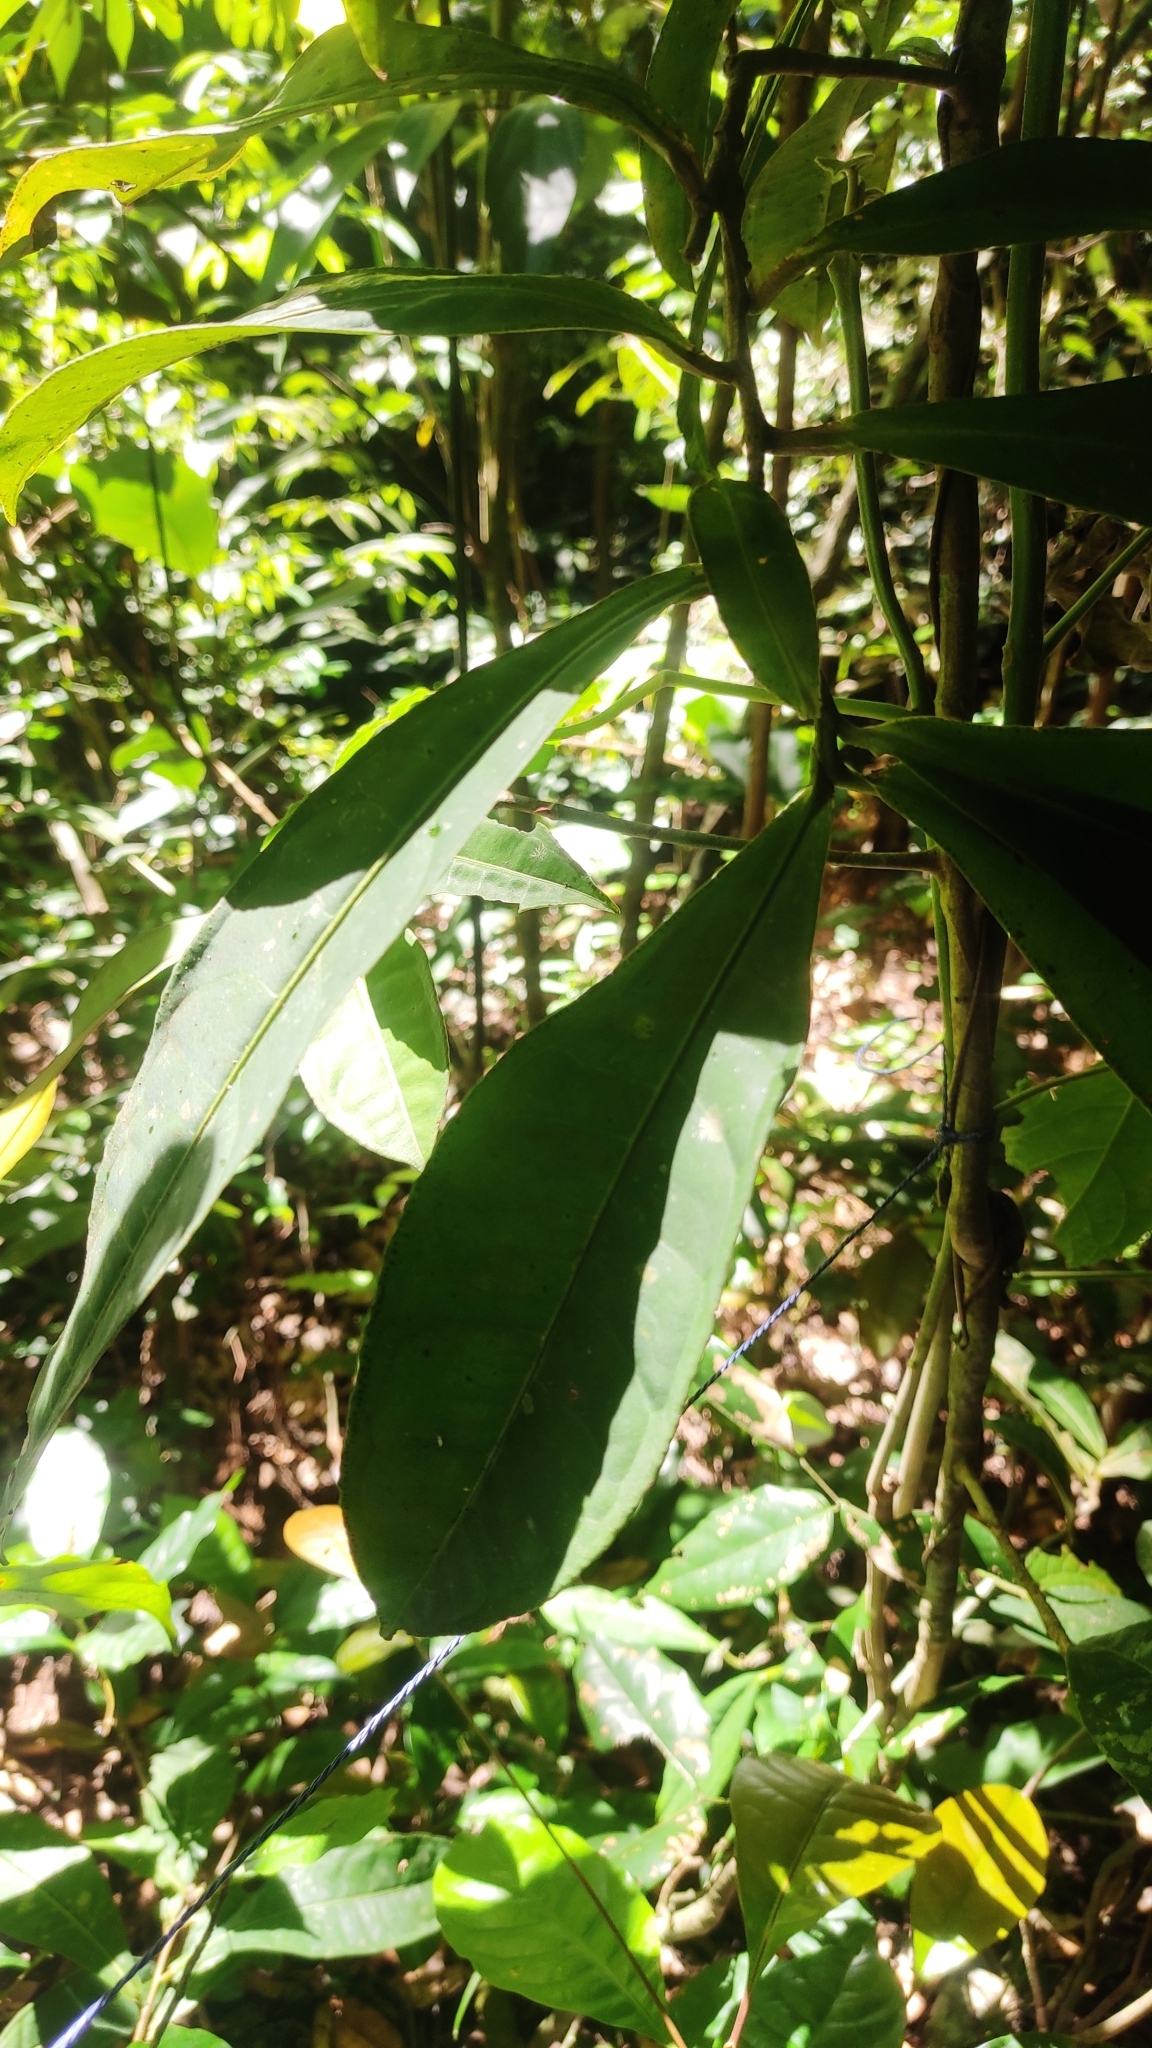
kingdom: Plantae
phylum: Tracheophyta
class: Magnoliopsida
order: Ericales
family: Primulaceae
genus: Ardisia
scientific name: Ardisia sonchifolia
